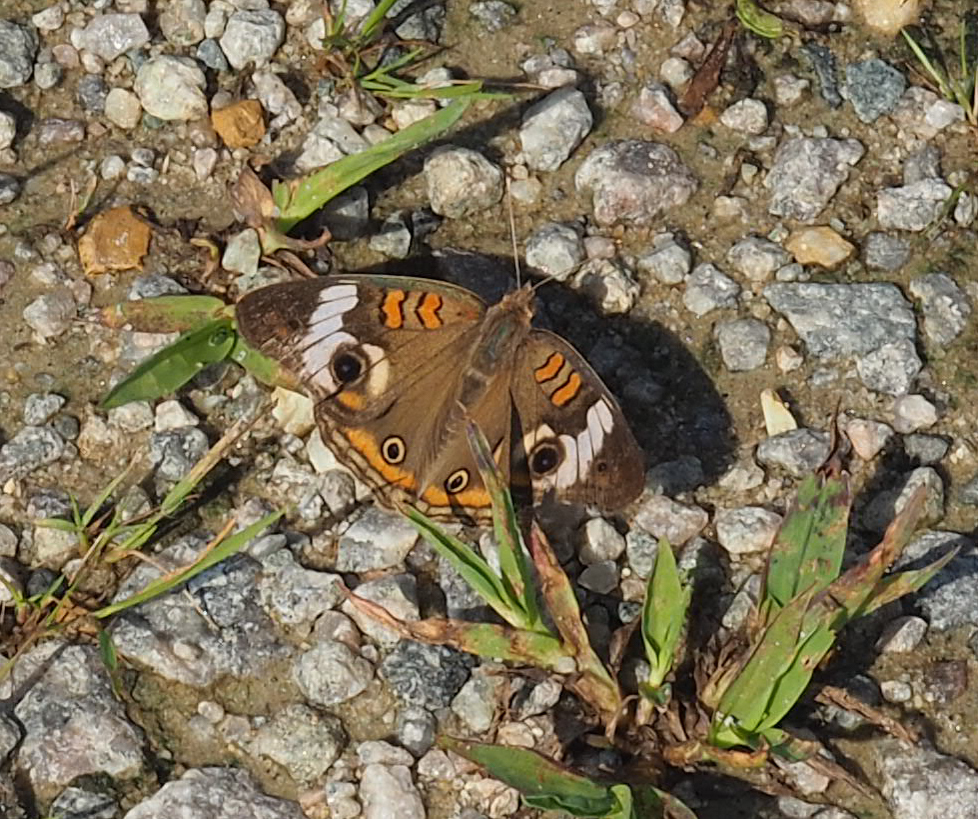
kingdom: Animalia
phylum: Arthropoda
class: Insecta
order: Lepidoptera
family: Nymphalidae
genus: Junonia
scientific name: Junonia coenia
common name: Common buckeye
